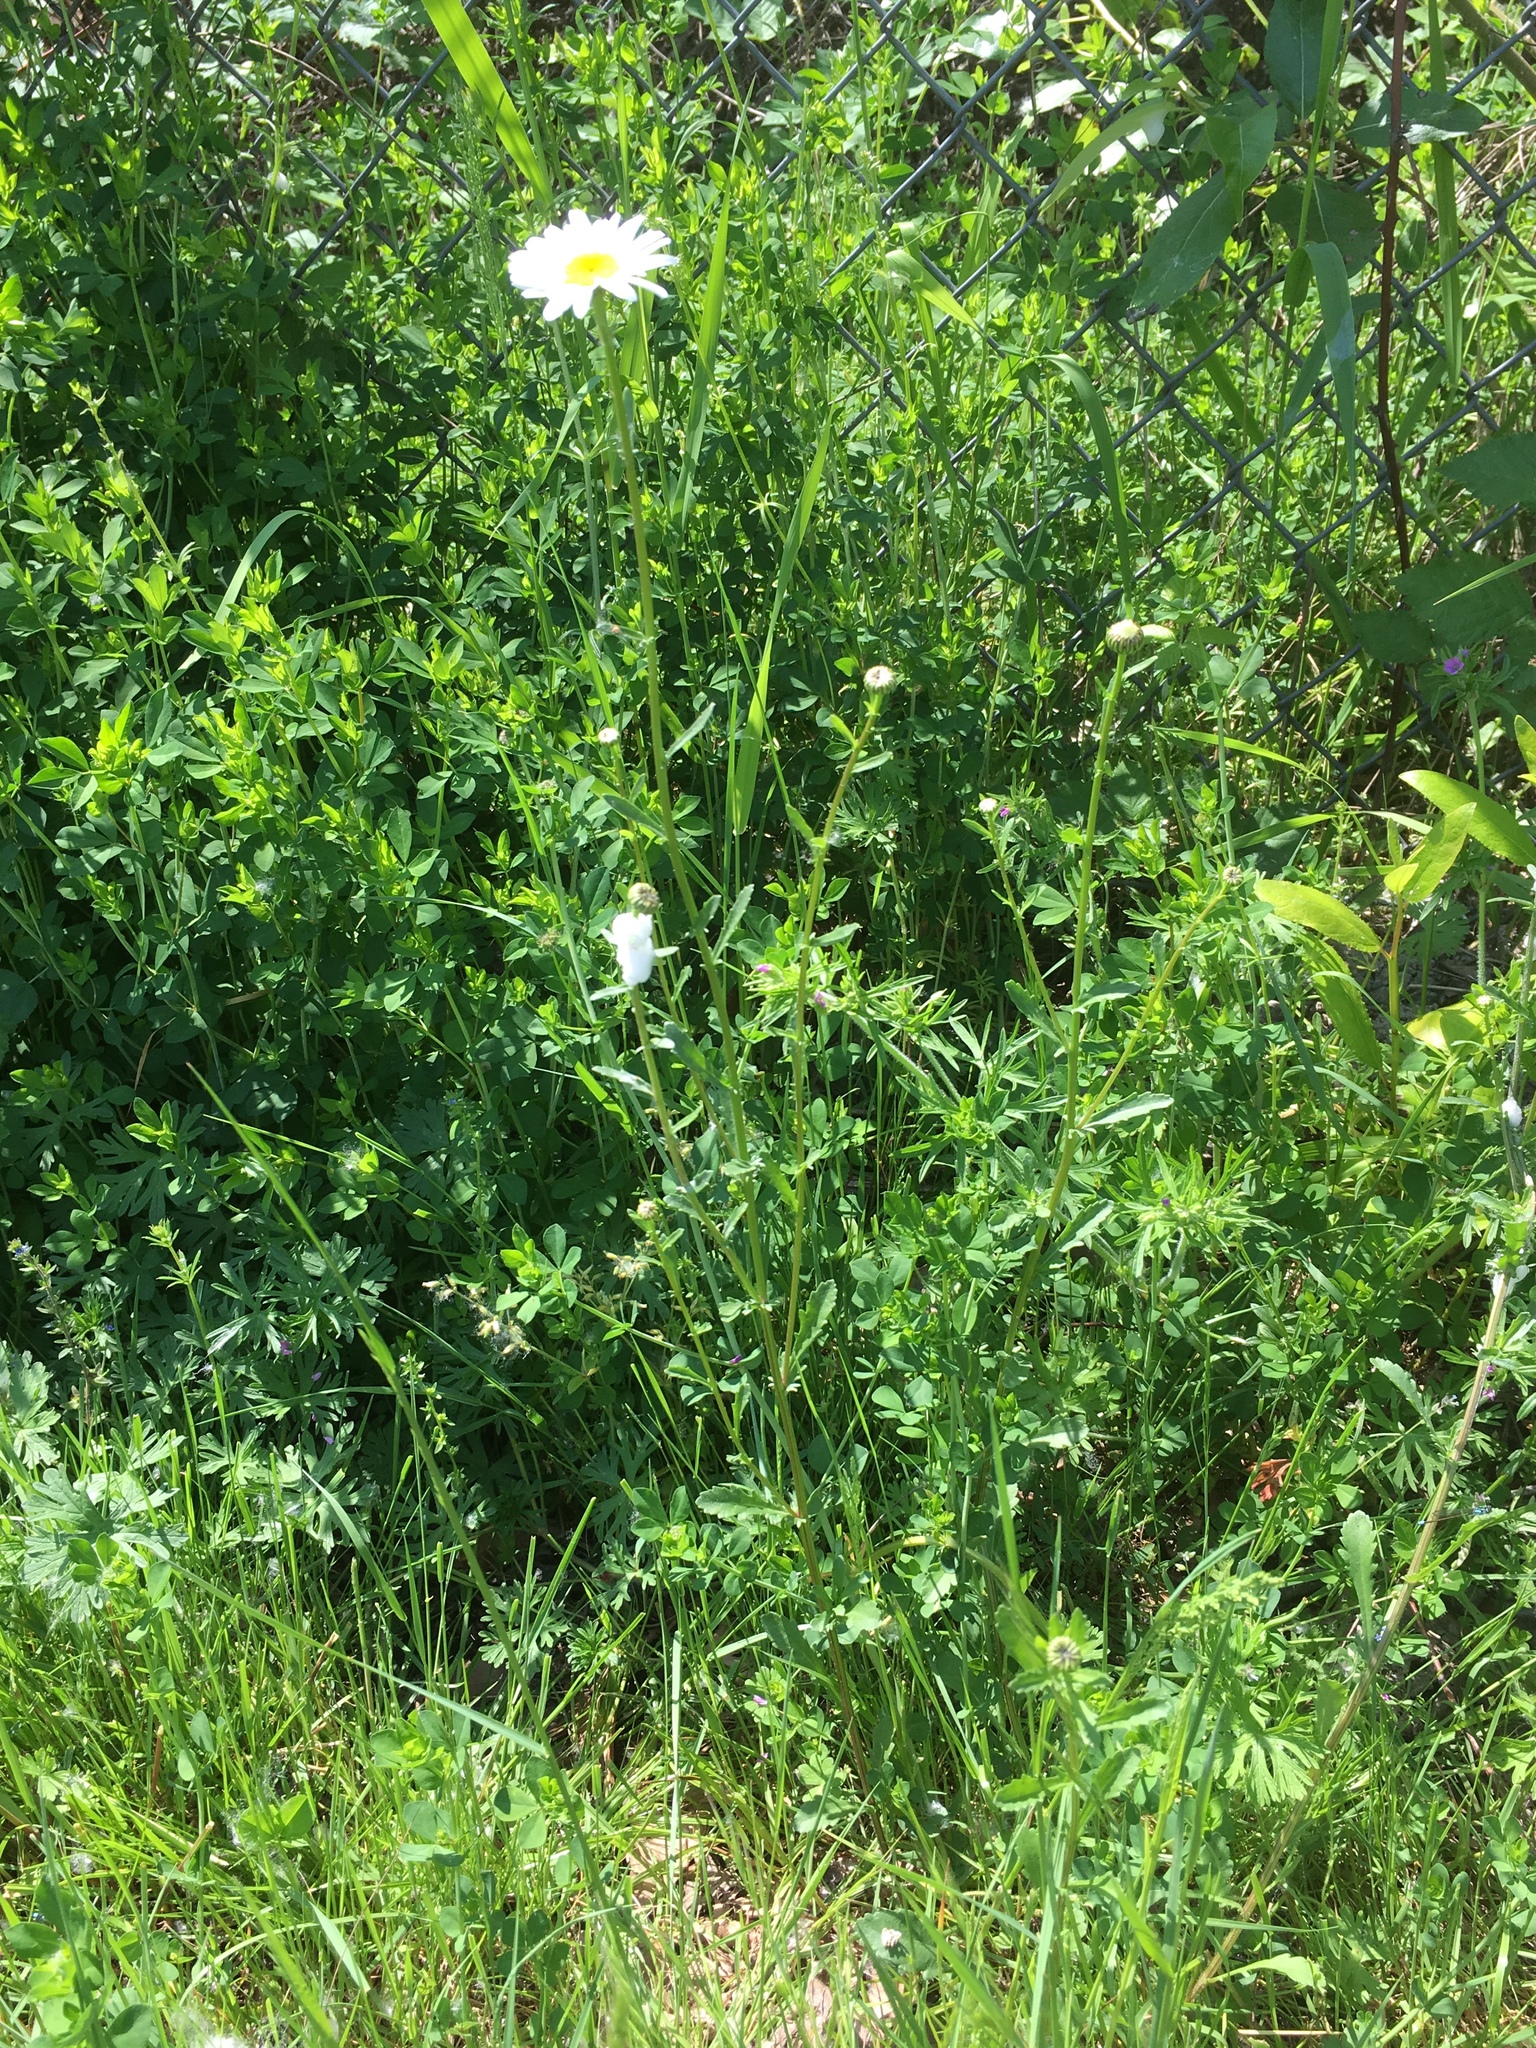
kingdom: Plantae
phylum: Tracheophyta
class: Magnoliopsida
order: Asterales
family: Asteraceae
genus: Leucanthemum
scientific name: Leucanthemum vulgare
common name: Oxeye daisy
